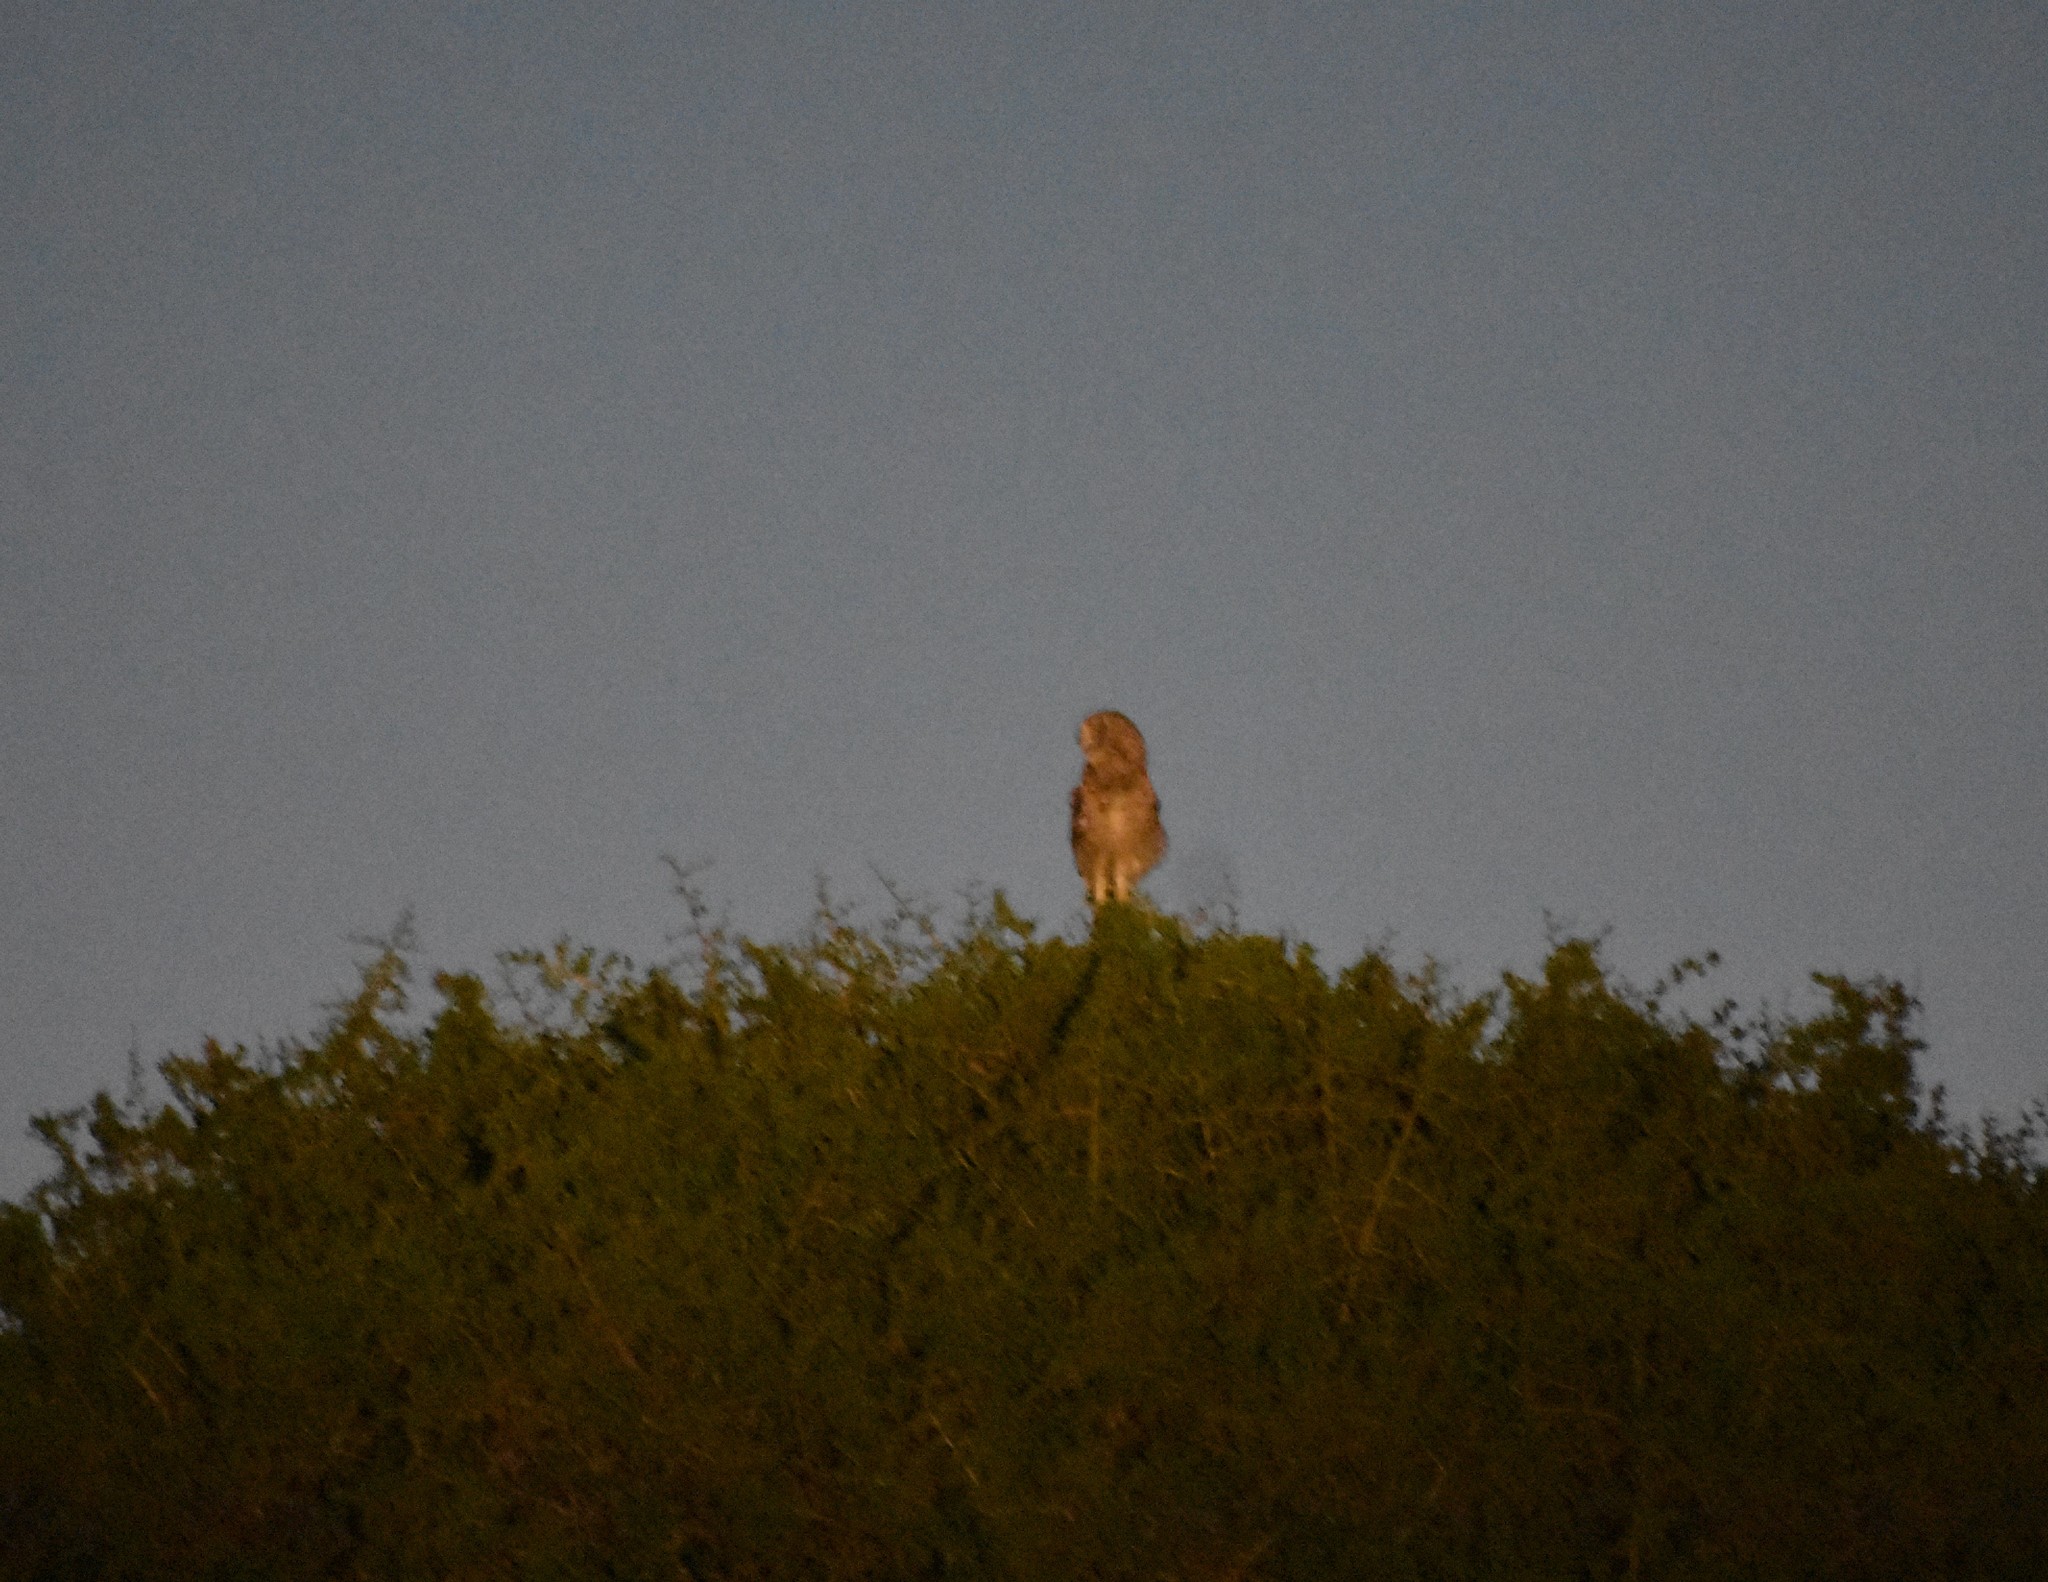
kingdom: Animalia
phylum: Chordata
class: Aves
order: Strigiformes
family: Strigidae
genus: Bubo
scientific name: Bubo africanus
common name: Spotted eagle-owl
